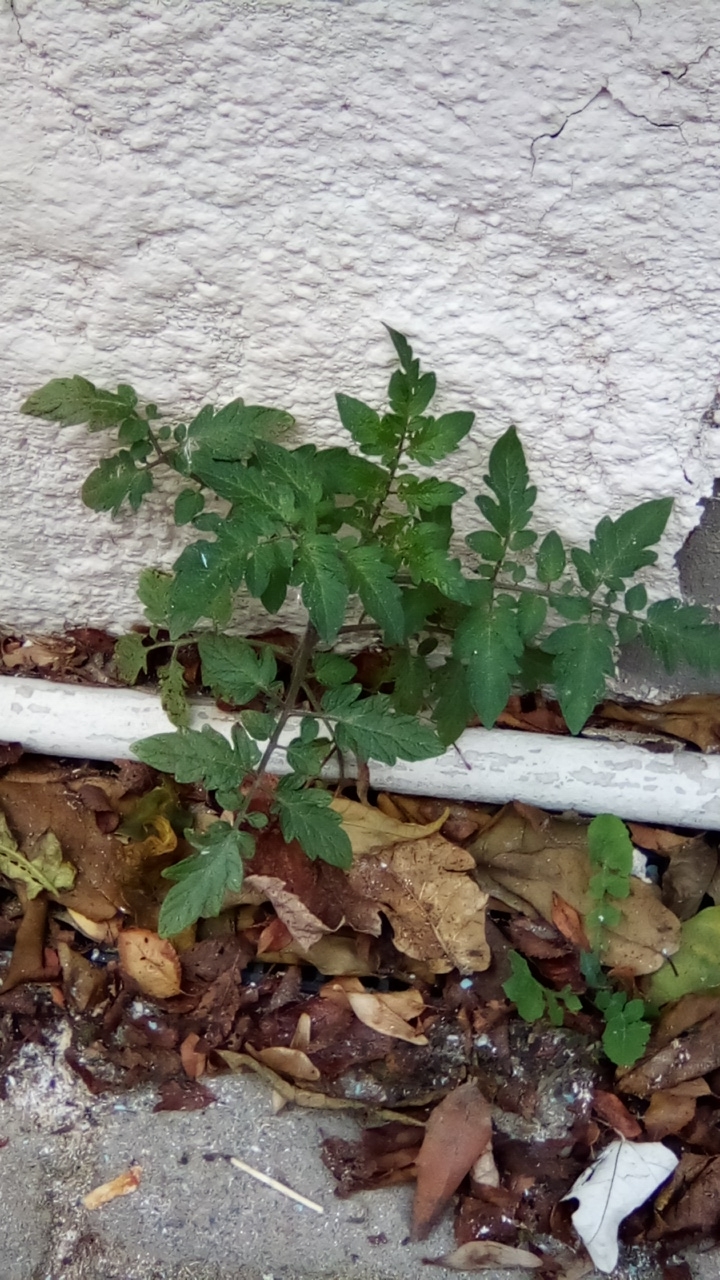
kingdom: Plantae
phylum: Tracheophyta
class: Magnoliopsida
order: Solanales
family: Solanaceae
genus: Solanum
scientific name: Solanum lycopersicum
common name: Garden tomato
